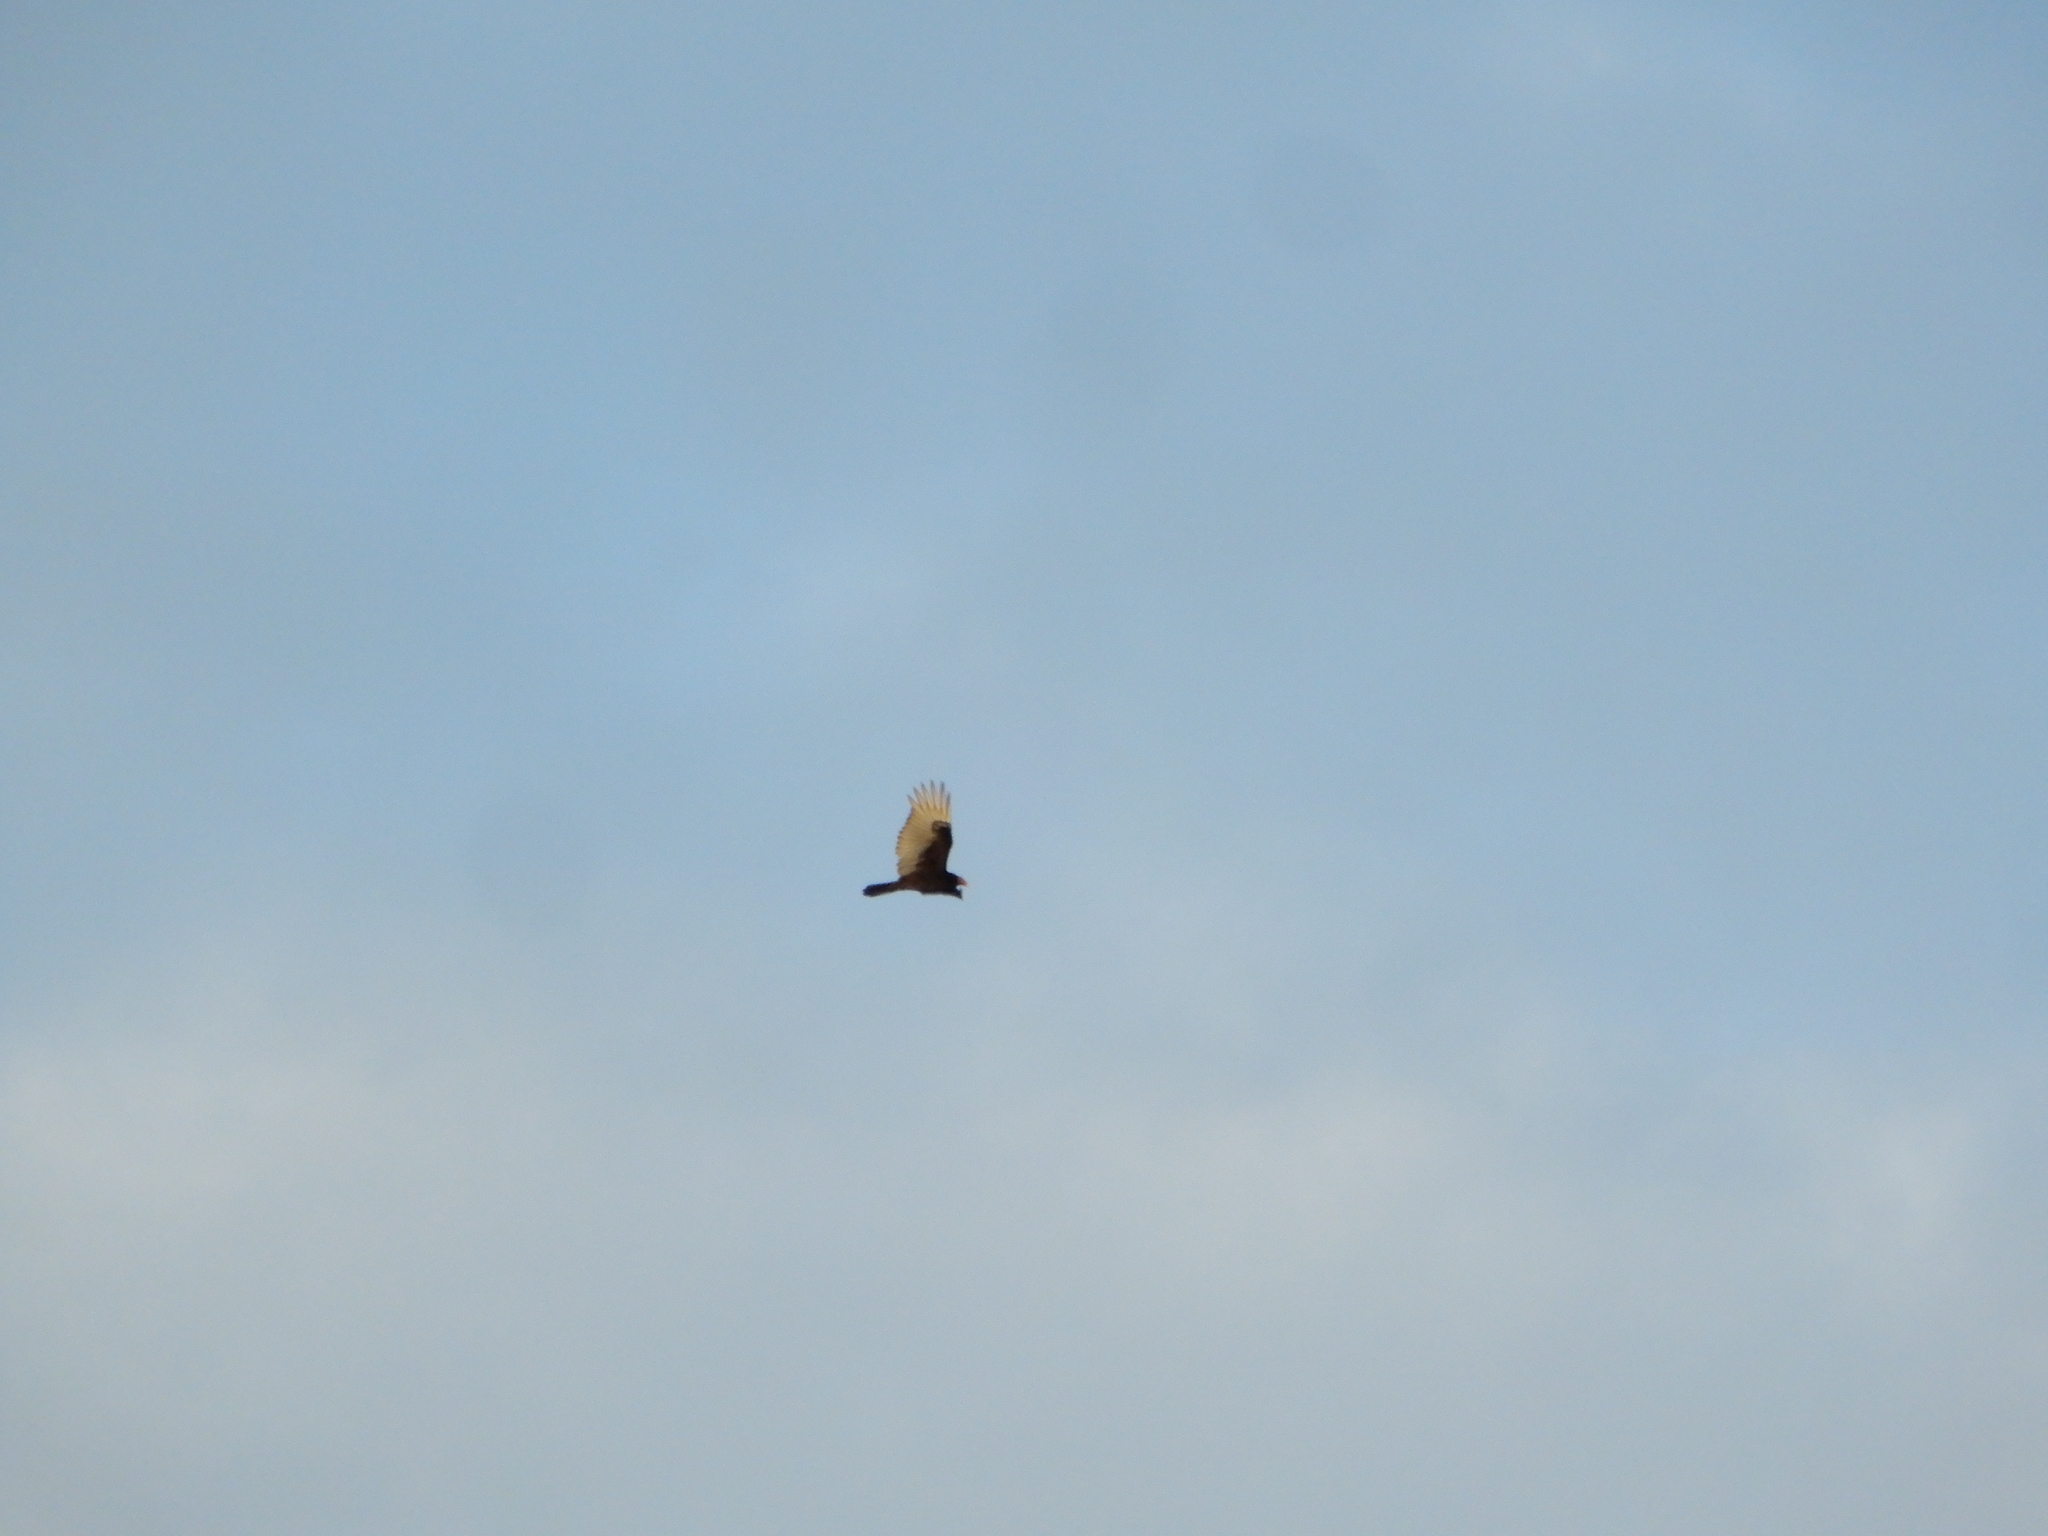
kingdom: Animalia
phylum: Chordata
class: Aves
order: Accipitriformes
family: Cathartidae
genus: Cathartes
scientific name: Cathartes aura
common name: Turkey vulture
